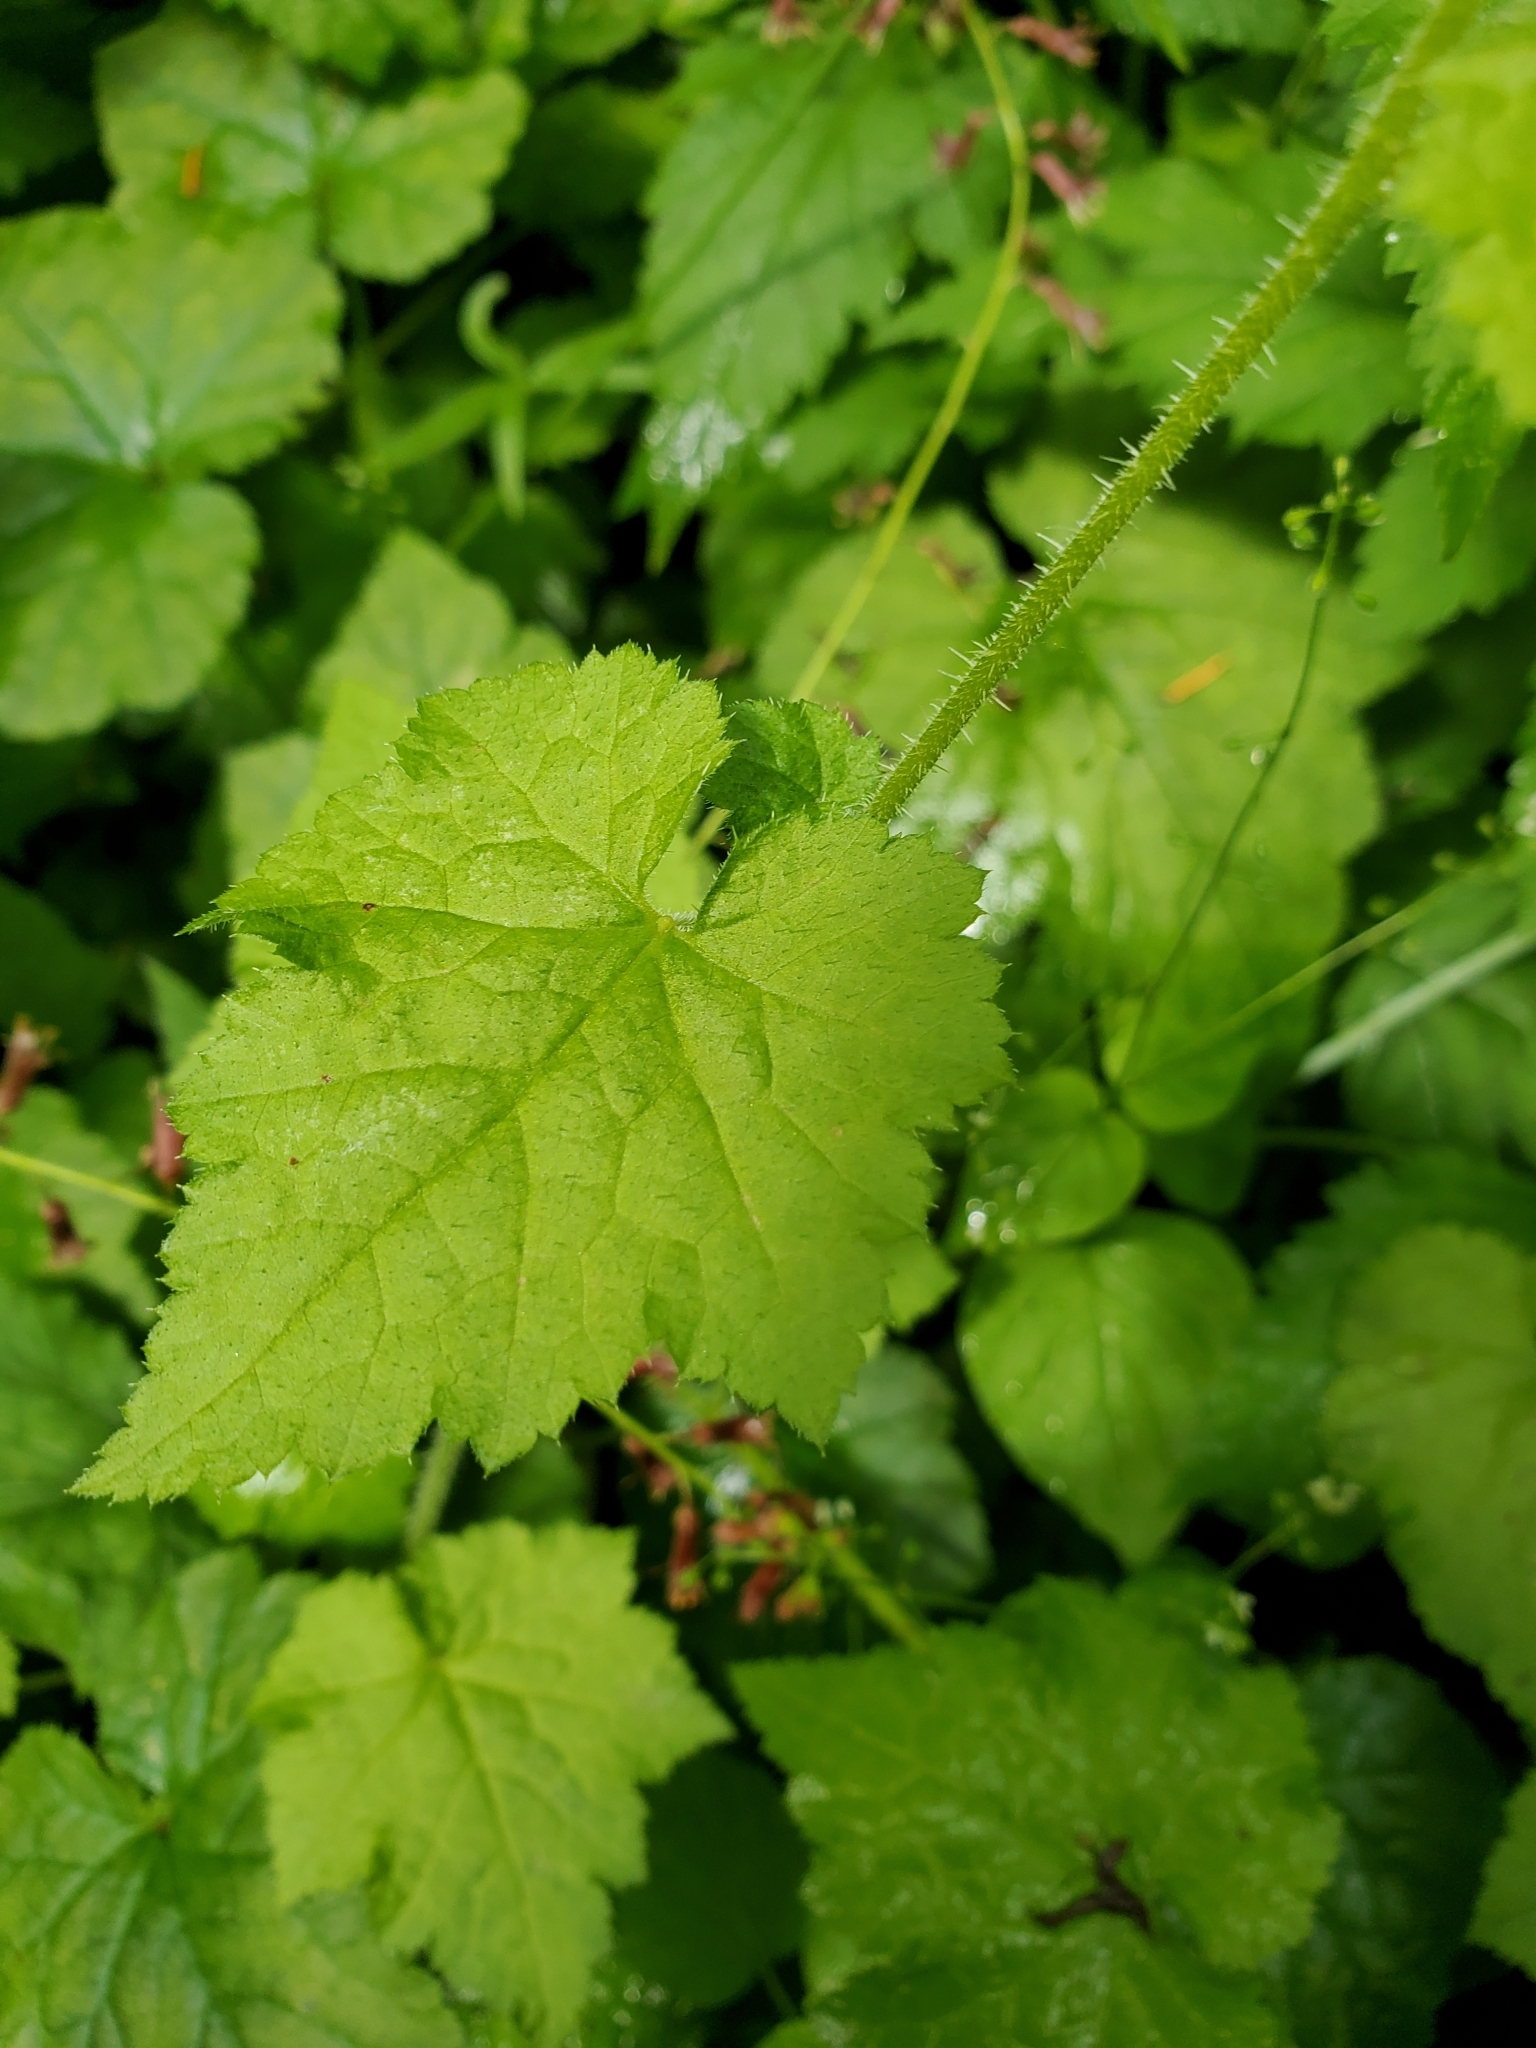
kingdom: Plantae
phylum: Tracheophyta
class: Magnoliopsida
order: Saxifragales
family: Saxifragaceae
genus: Tolmiea
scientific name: Tolmiea menziesii
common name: Pick-a-back-plant
